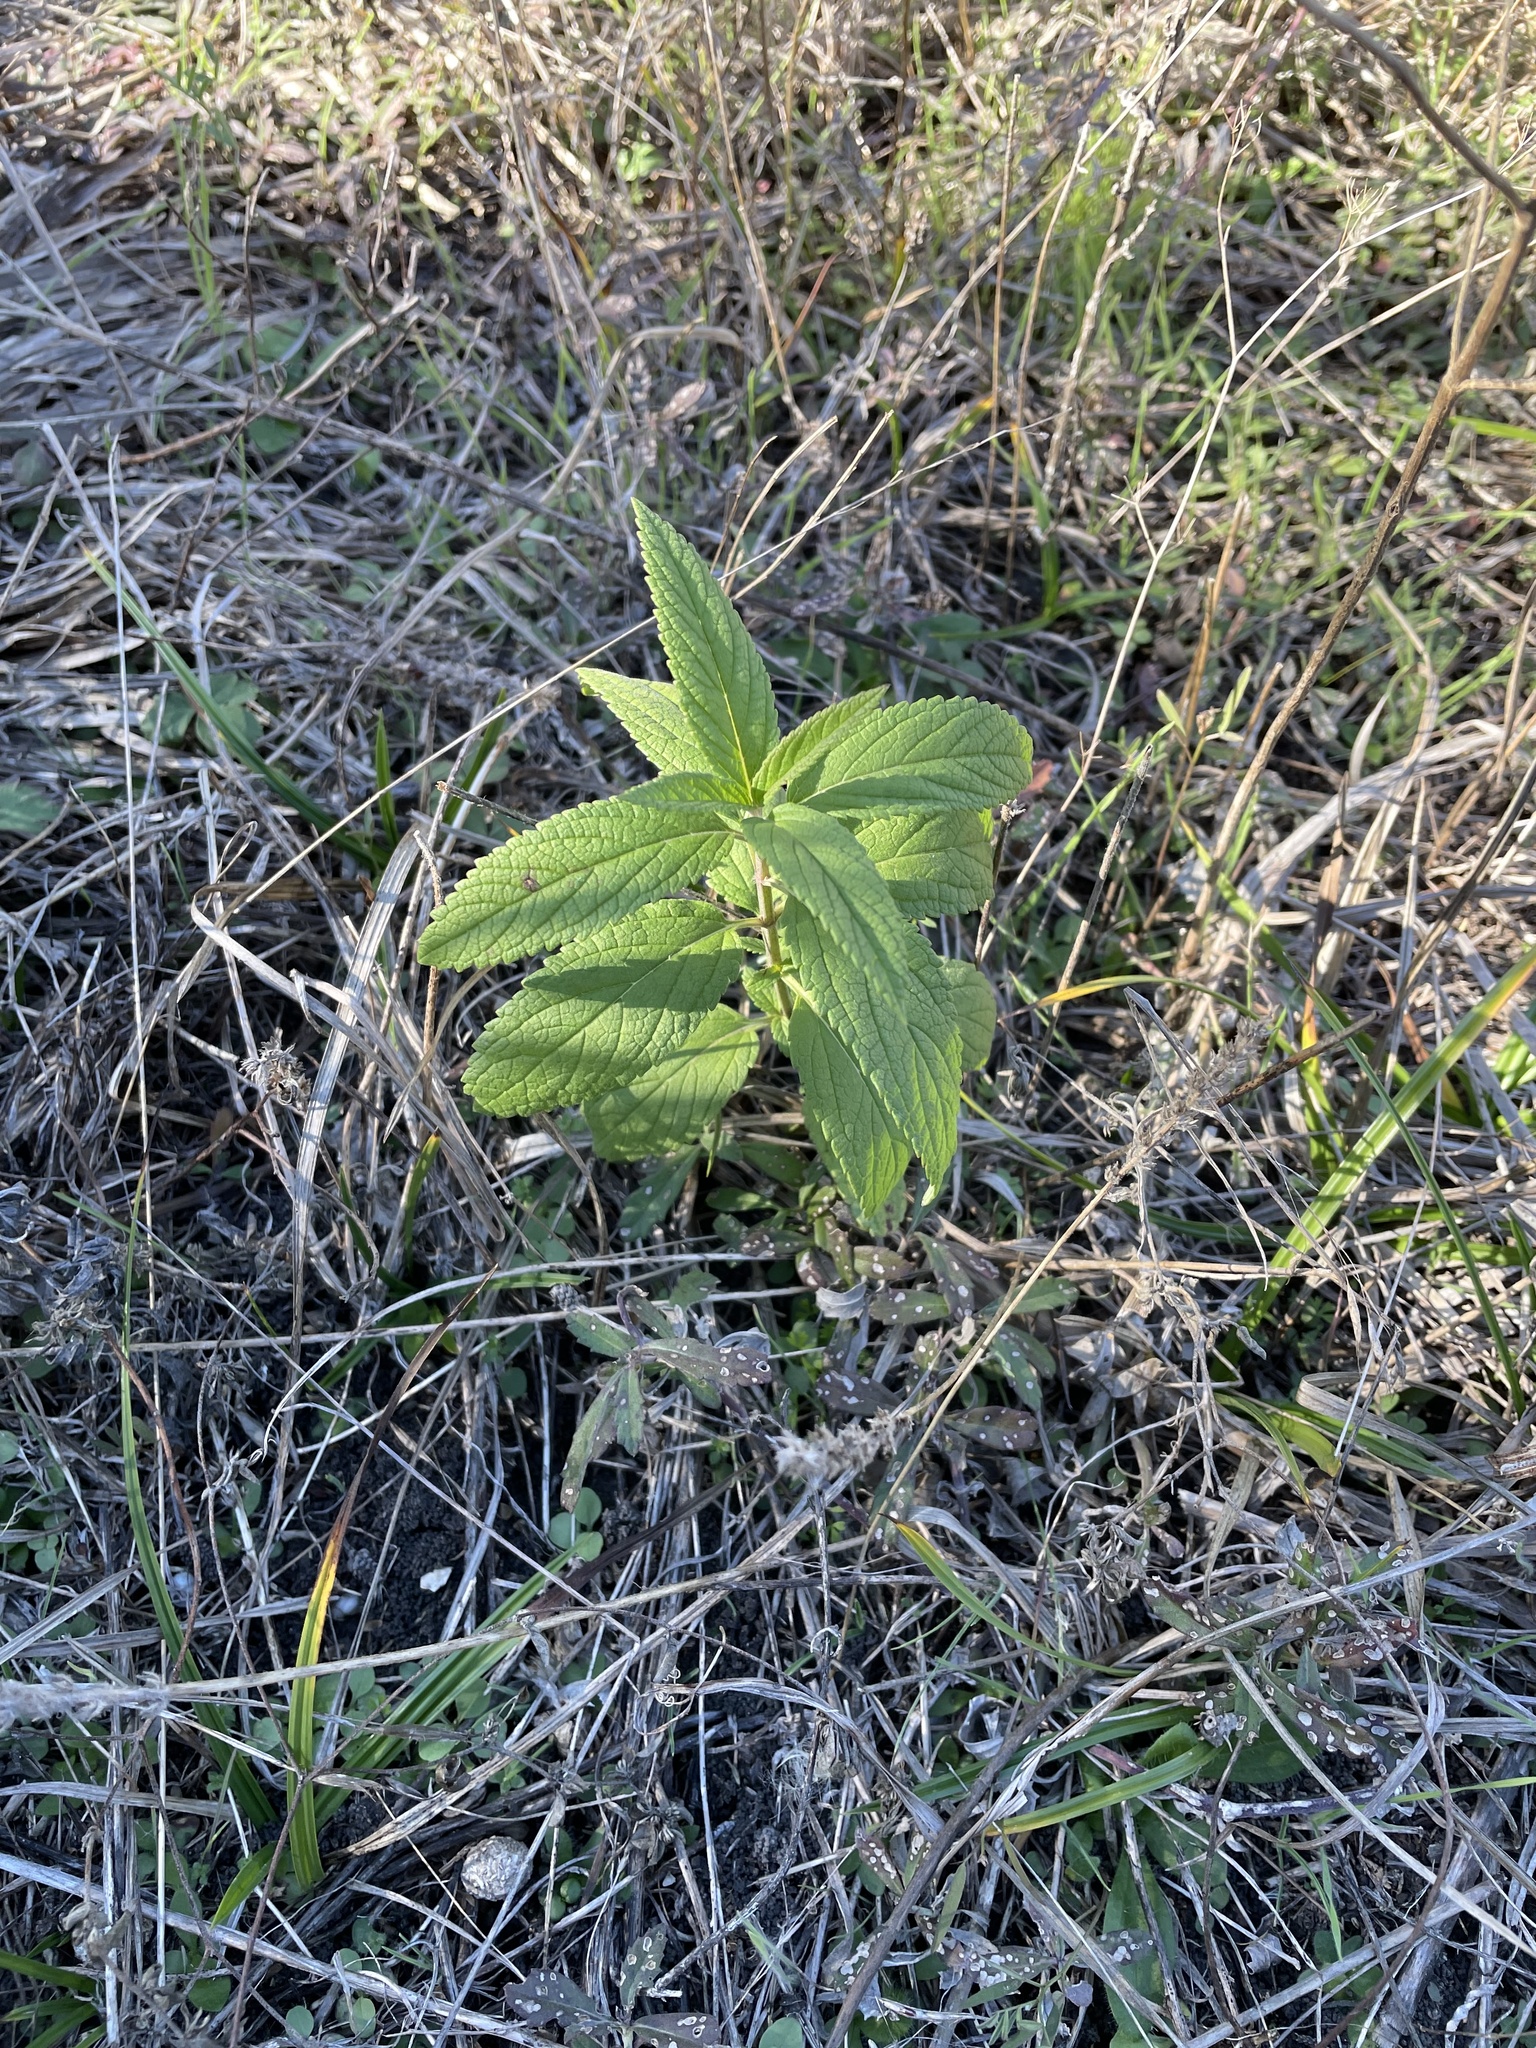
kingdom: Plantae
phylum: Tracheophyta
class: Magnoliopsida
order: Lamiales
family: Lamiaceae
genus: Teucrium
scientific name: Teucrium canadense
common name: American germander
